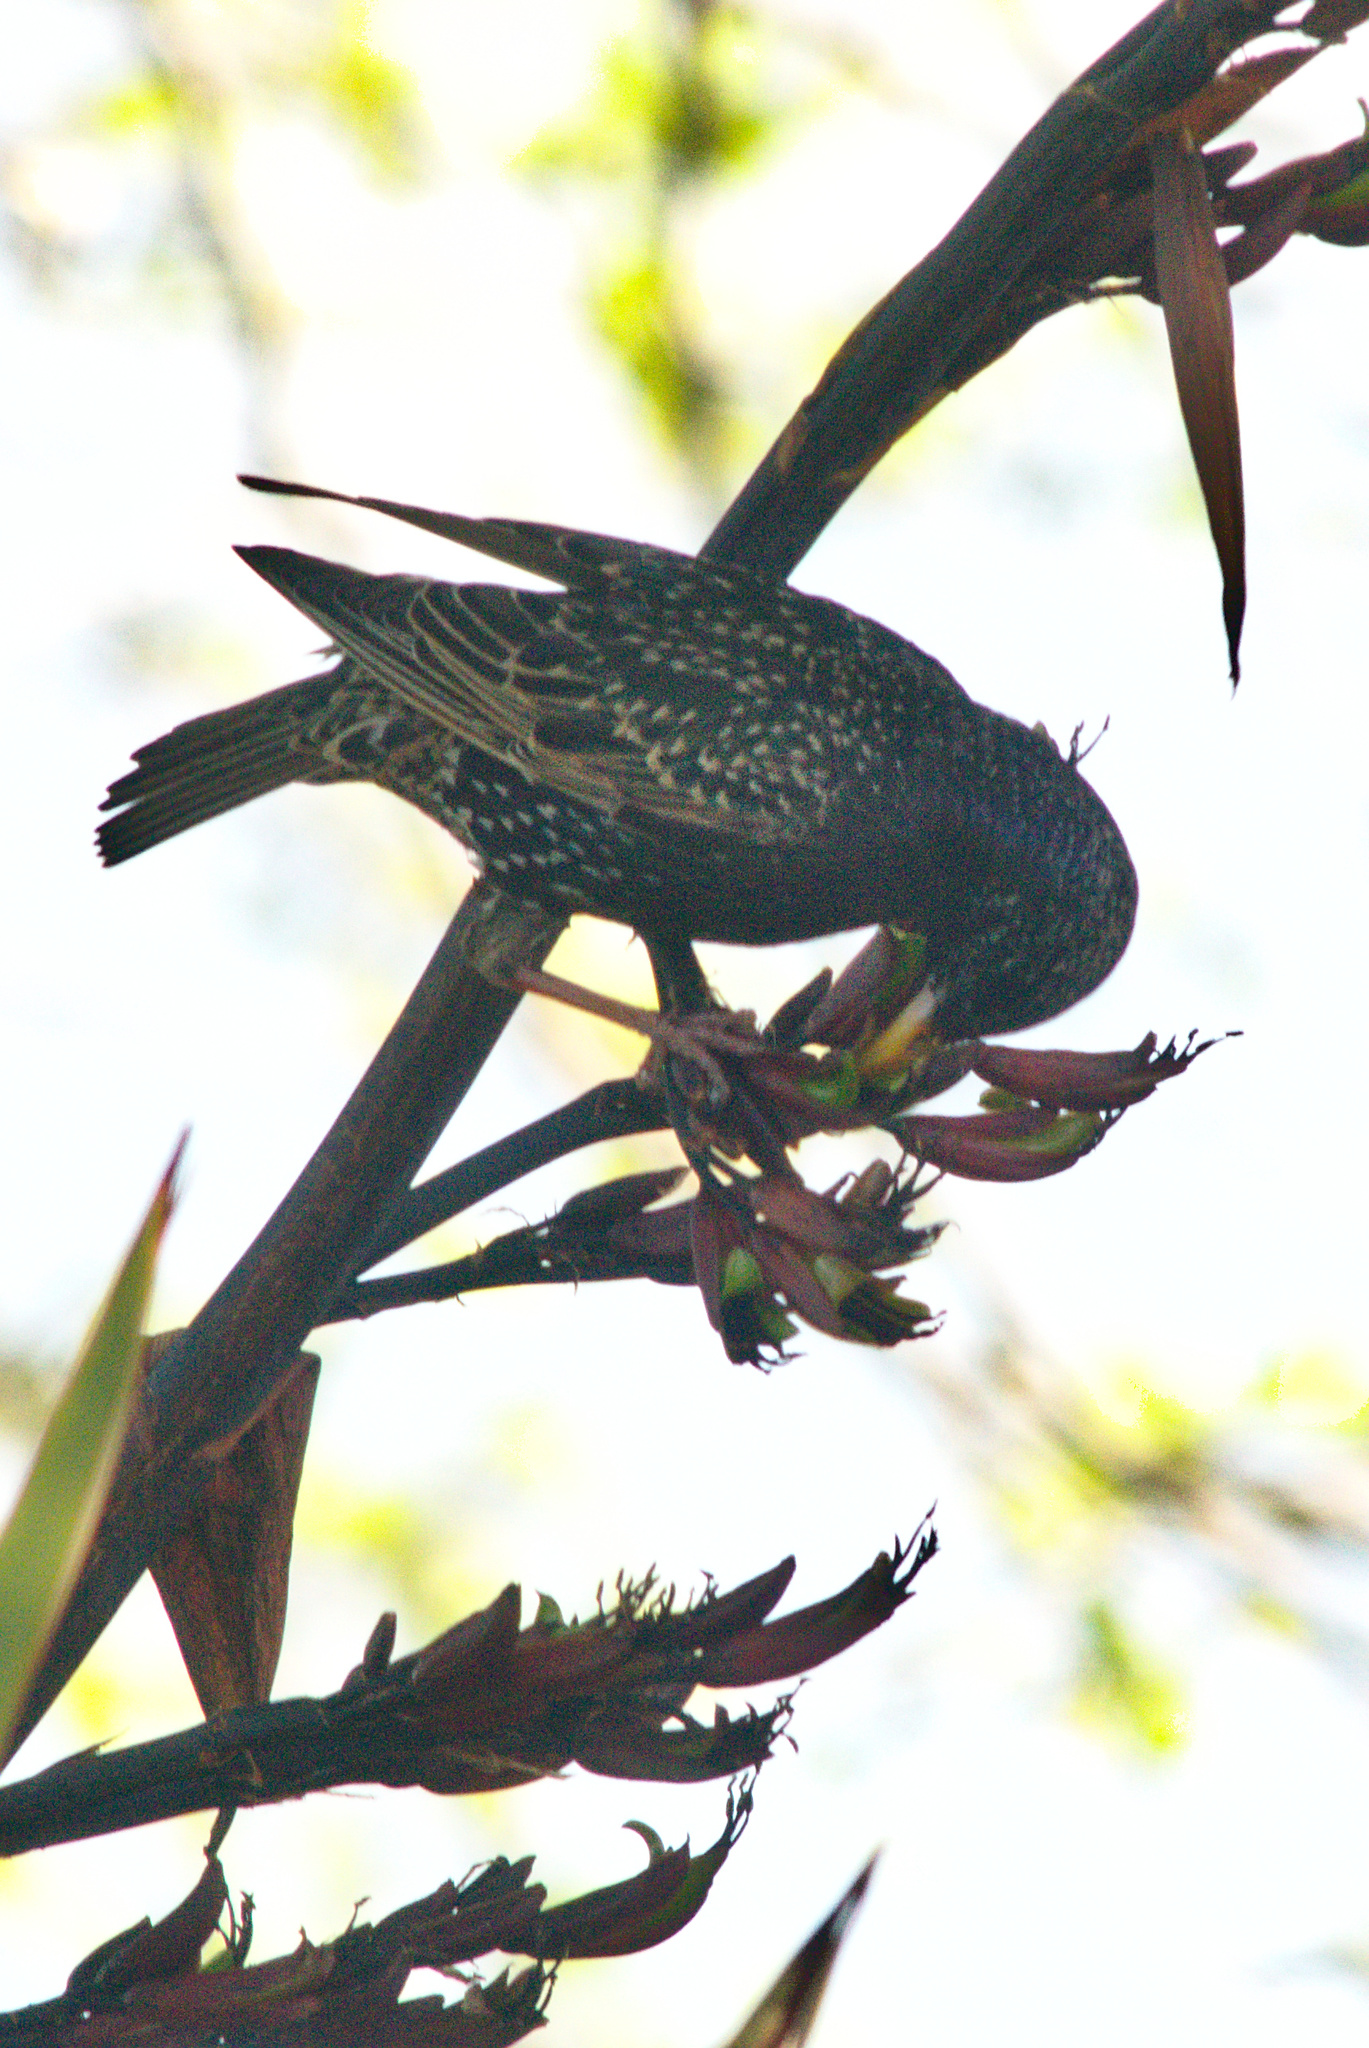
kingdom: Animalia
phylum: Chordata
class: Aves
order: Passeriformes
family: Sturnidae
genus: Sturnus
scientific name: Sturnus vulgaris
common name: Common starling
